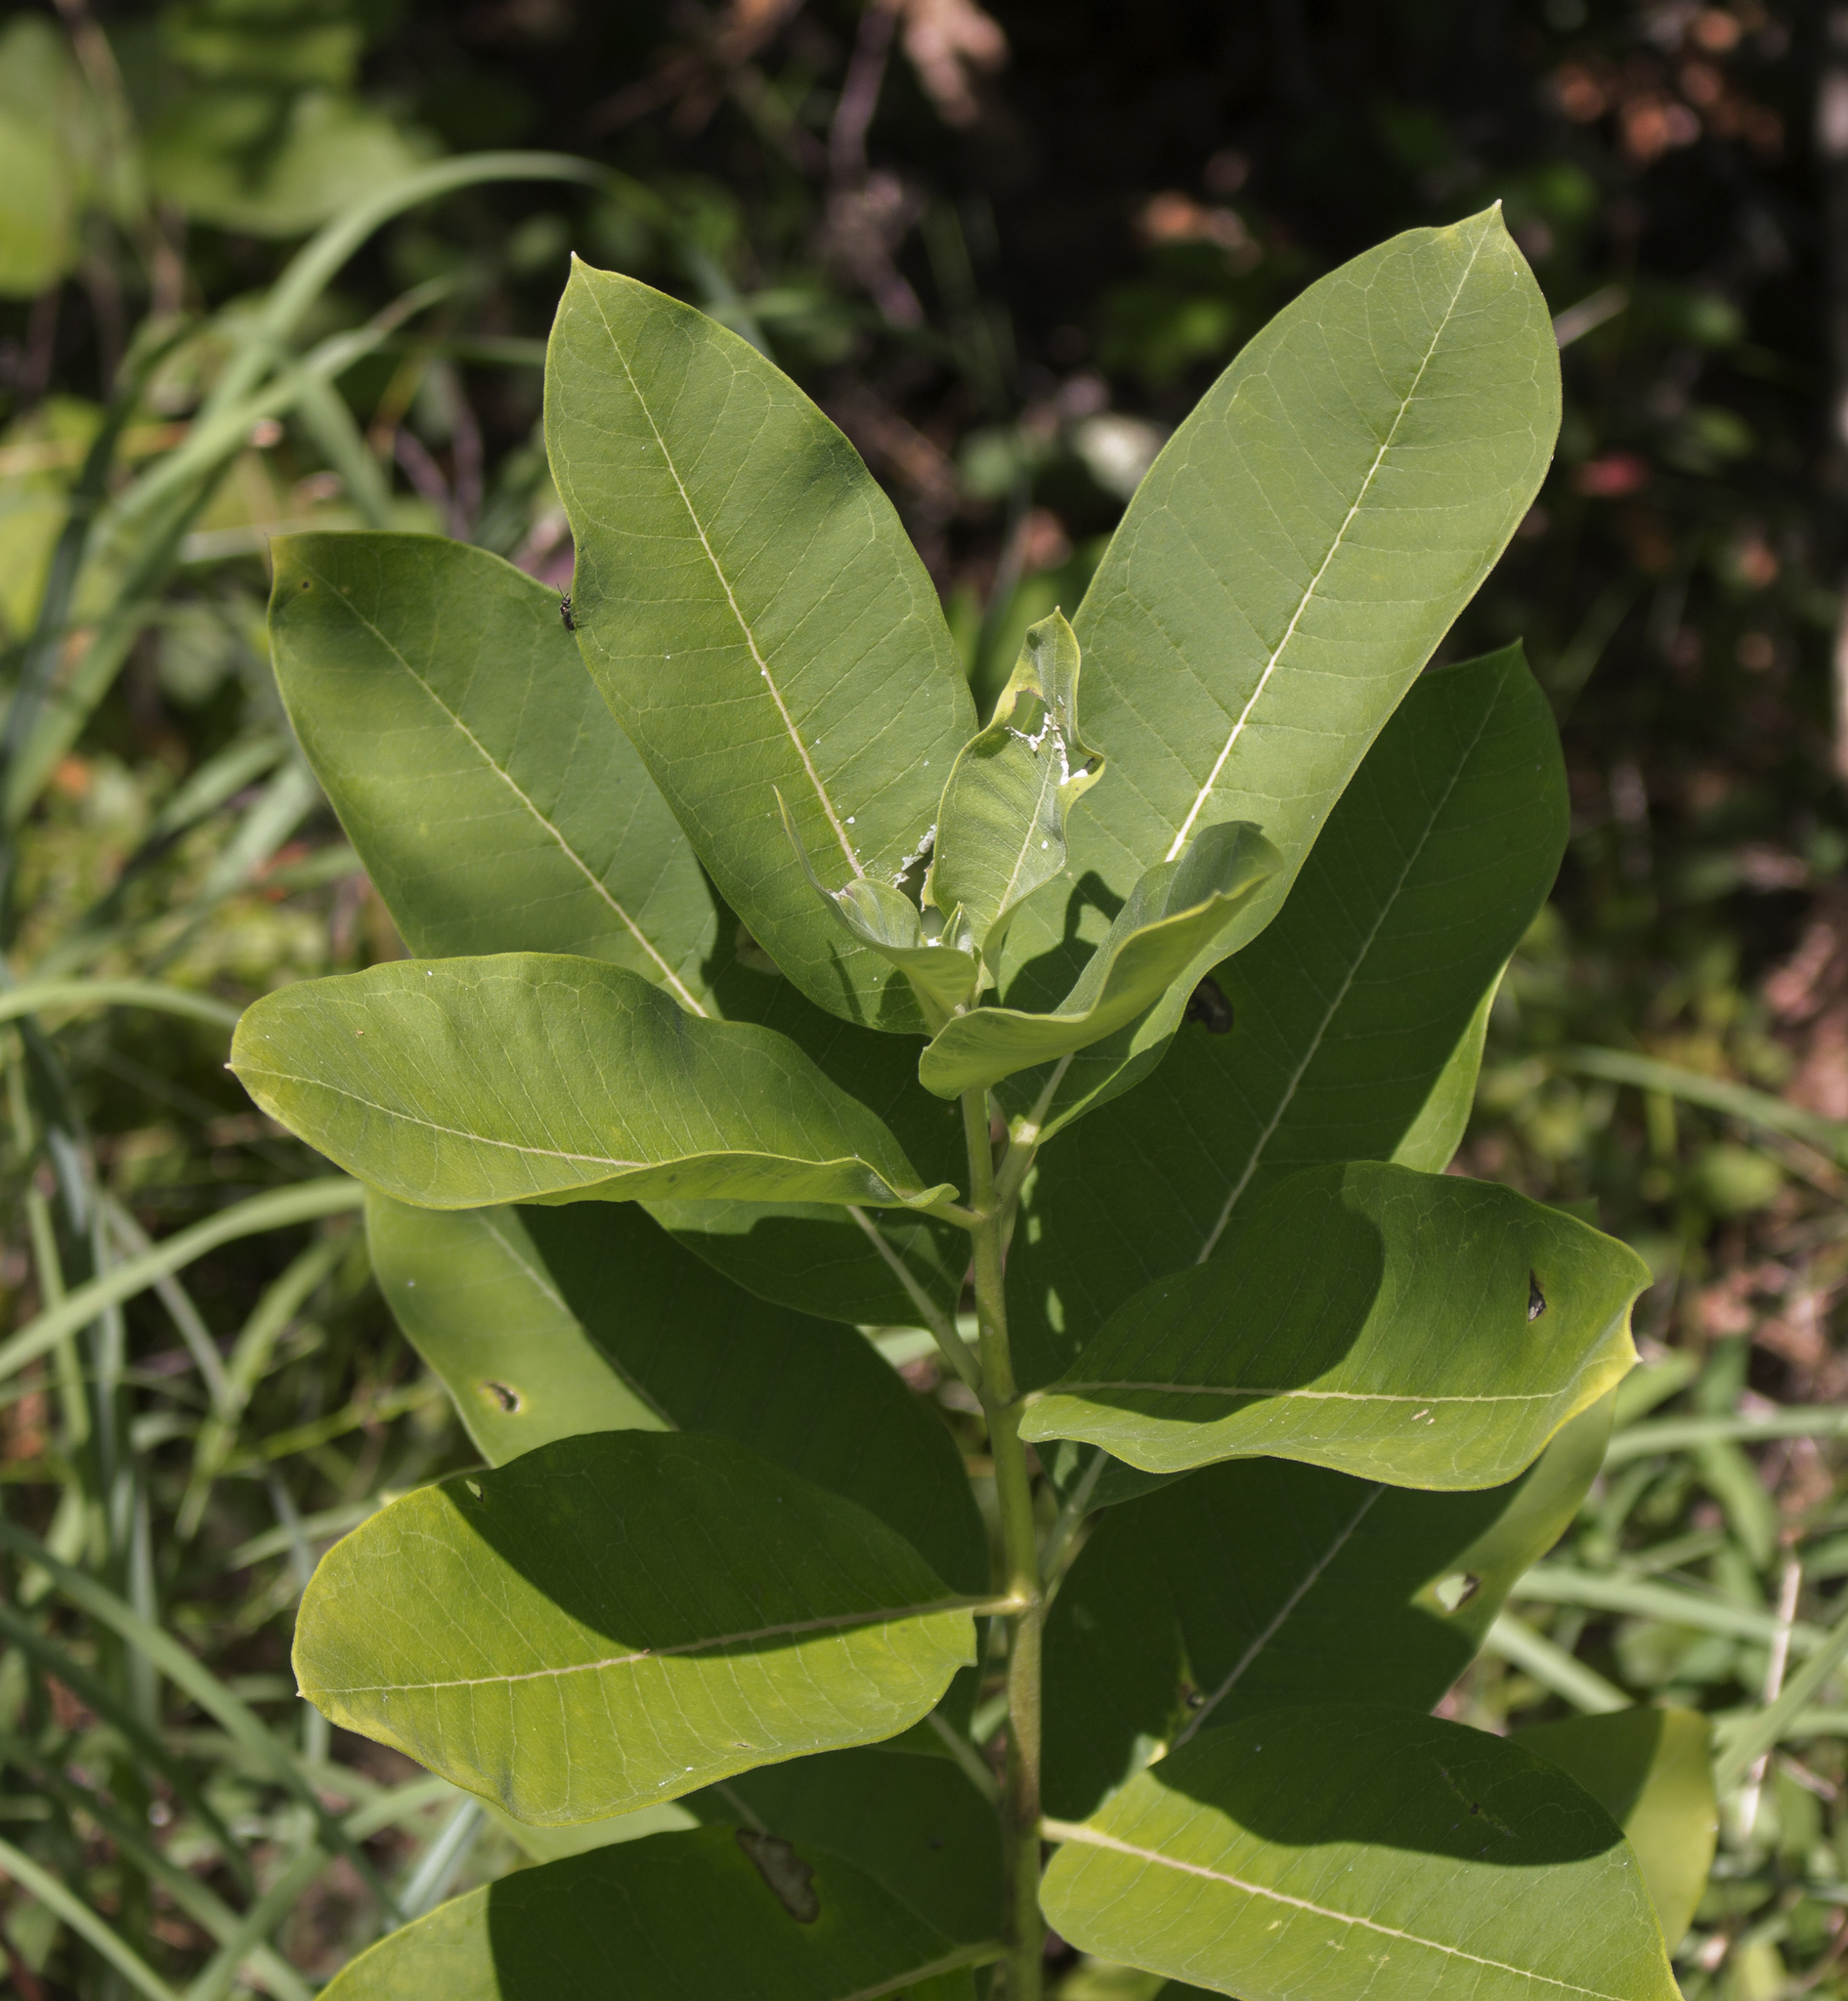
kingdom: Plantae
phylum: Tracheophyta
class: Magnoliopsida
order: Gentianales
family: Apocynaceae
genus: Asclepias
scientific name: Asclepias syriaca
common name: Common milkweed
